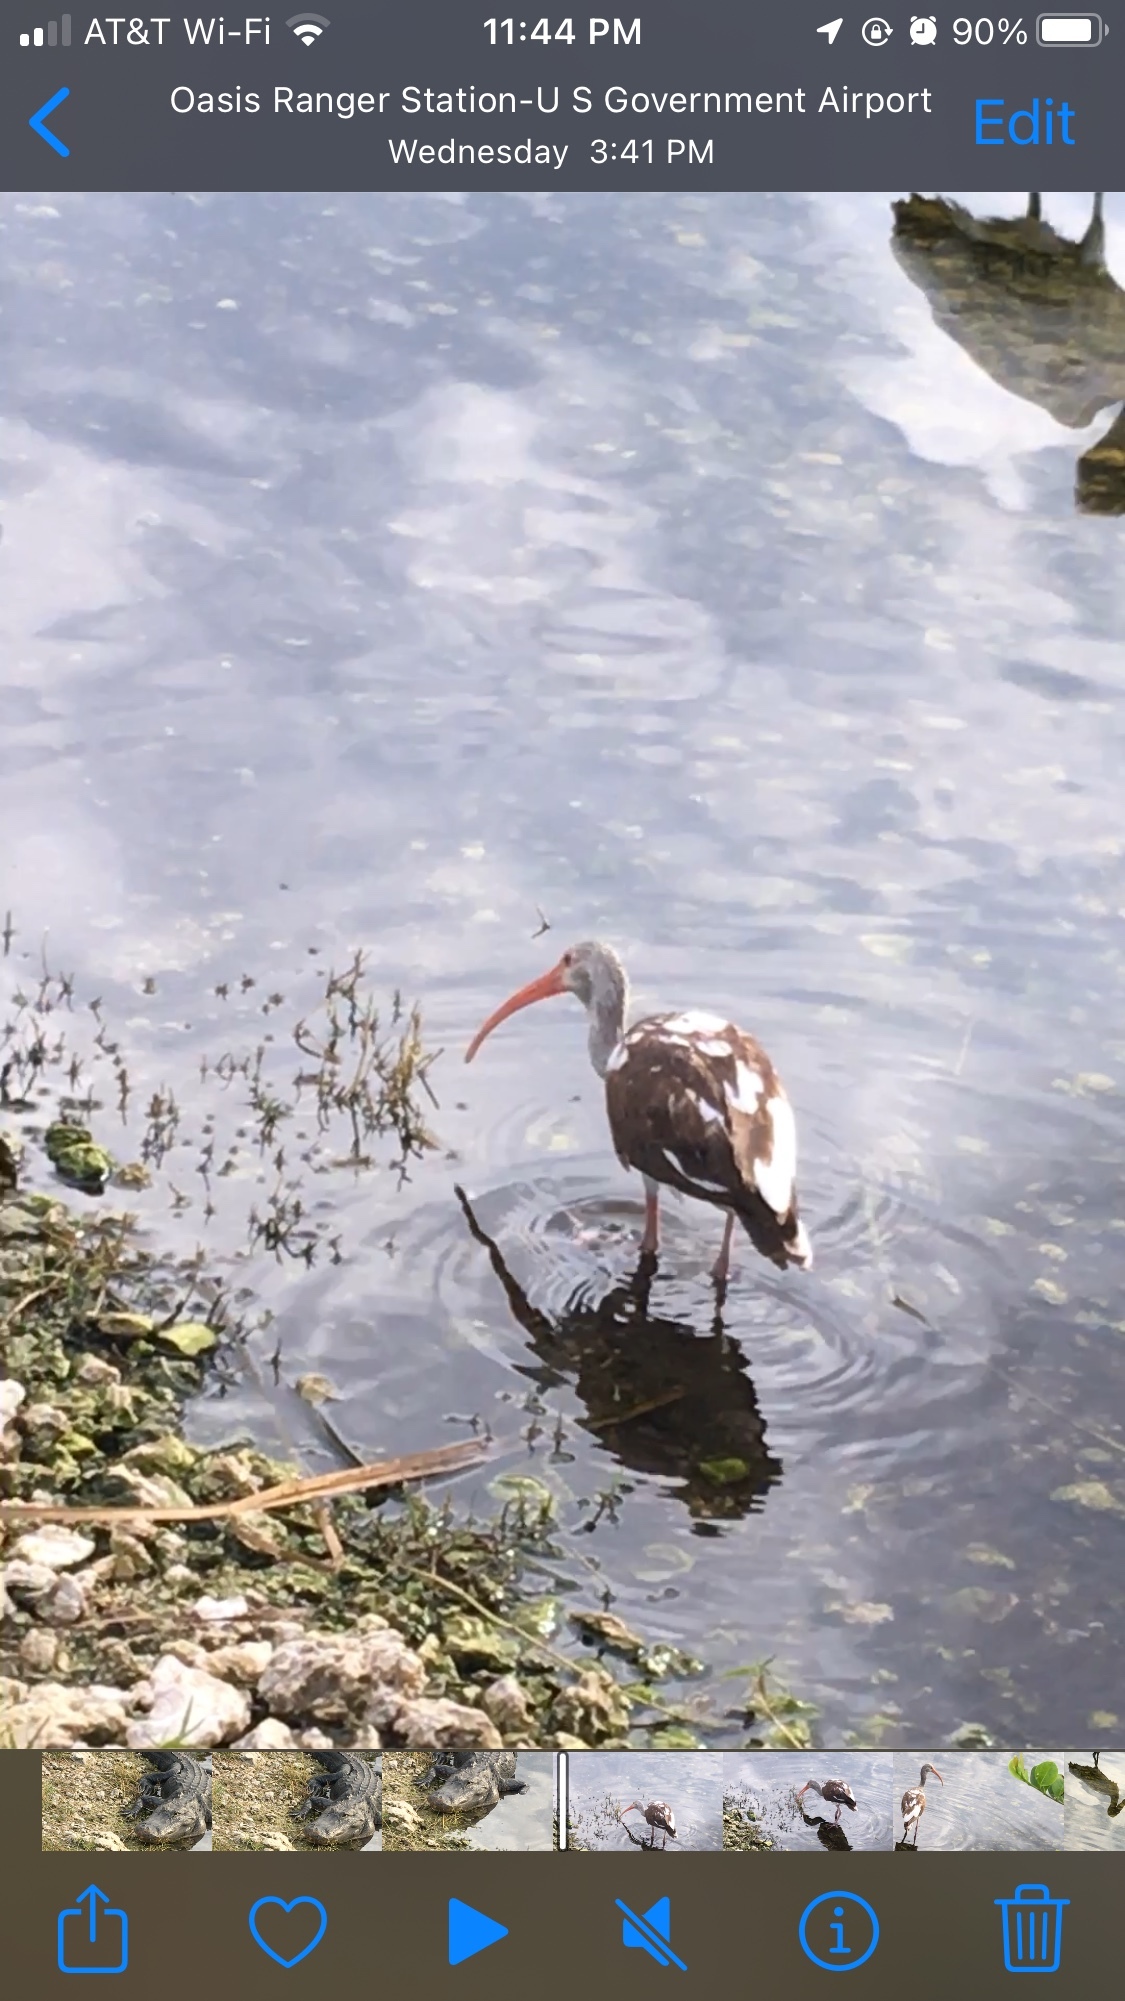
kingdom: Animalia
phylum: Chordata
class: Aves
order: Pelecaniformes
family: Threskiornithidae
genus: Eudocimus
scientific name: Eudocimus albus
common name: White ibis
